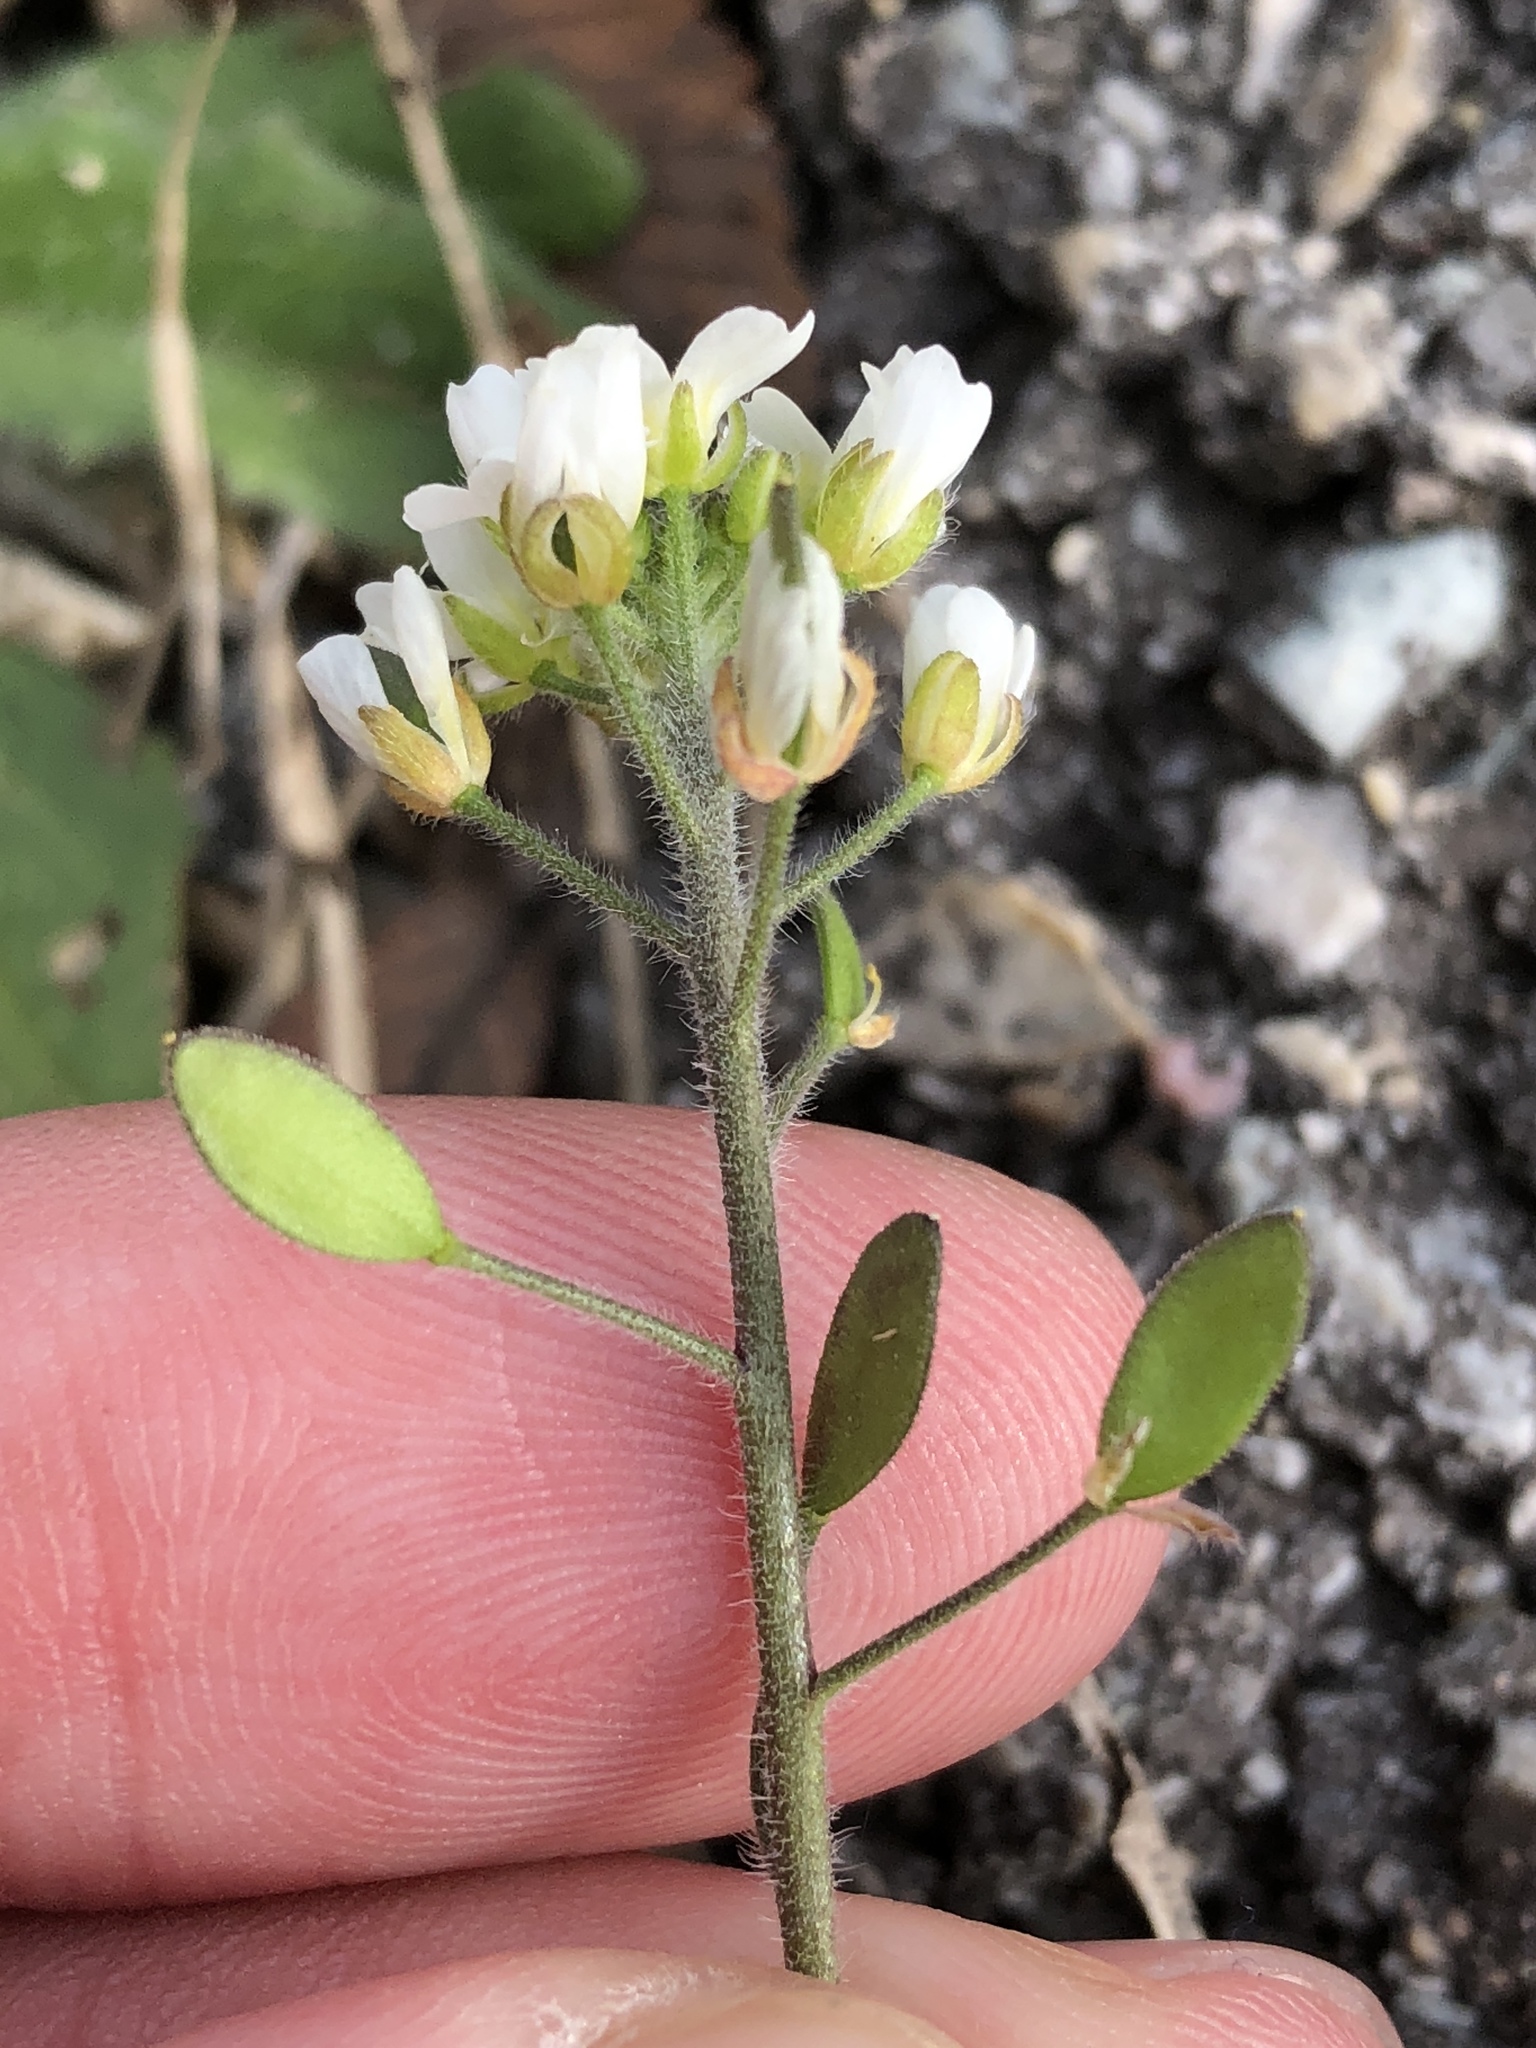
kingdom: Plantae
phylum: Tracheophyta
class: Magnoliopsida
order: Brassicales
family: Brassicaceae
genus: Tomostima
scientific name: Tomostima platycarpa
